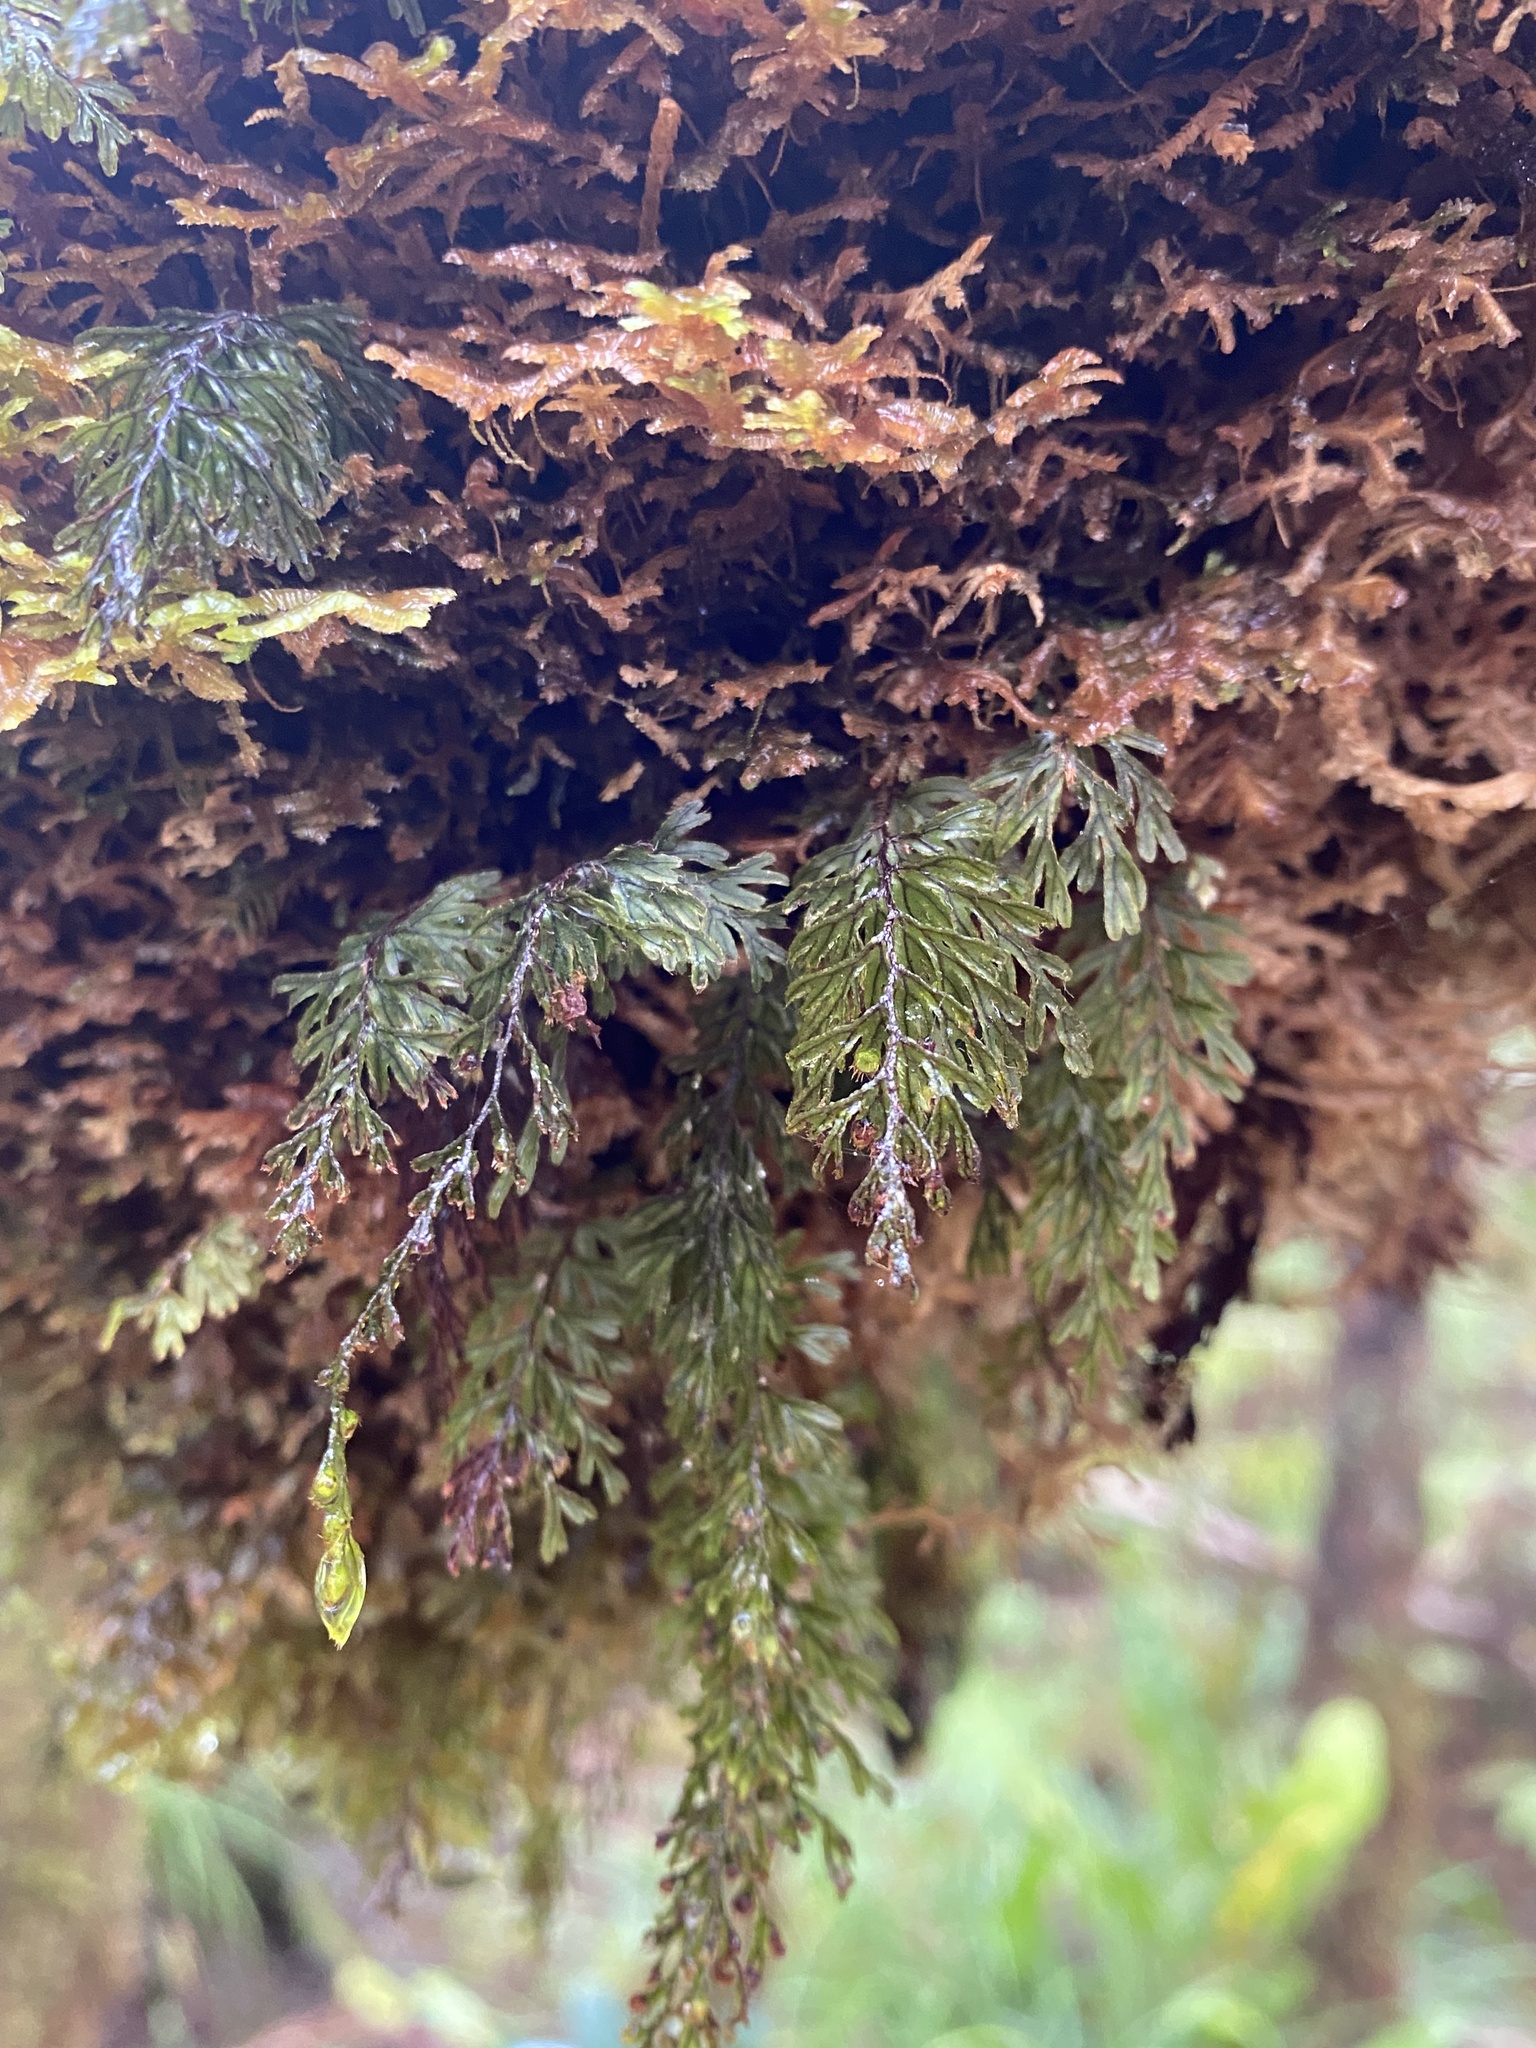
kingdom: Plantae
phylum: Tracheophyta
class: Polypodiopsida
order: Hymenophyllales
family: Hymenophyllaceae
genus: Hymenophyllum
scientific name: Hymenophyllum lanceolatum
